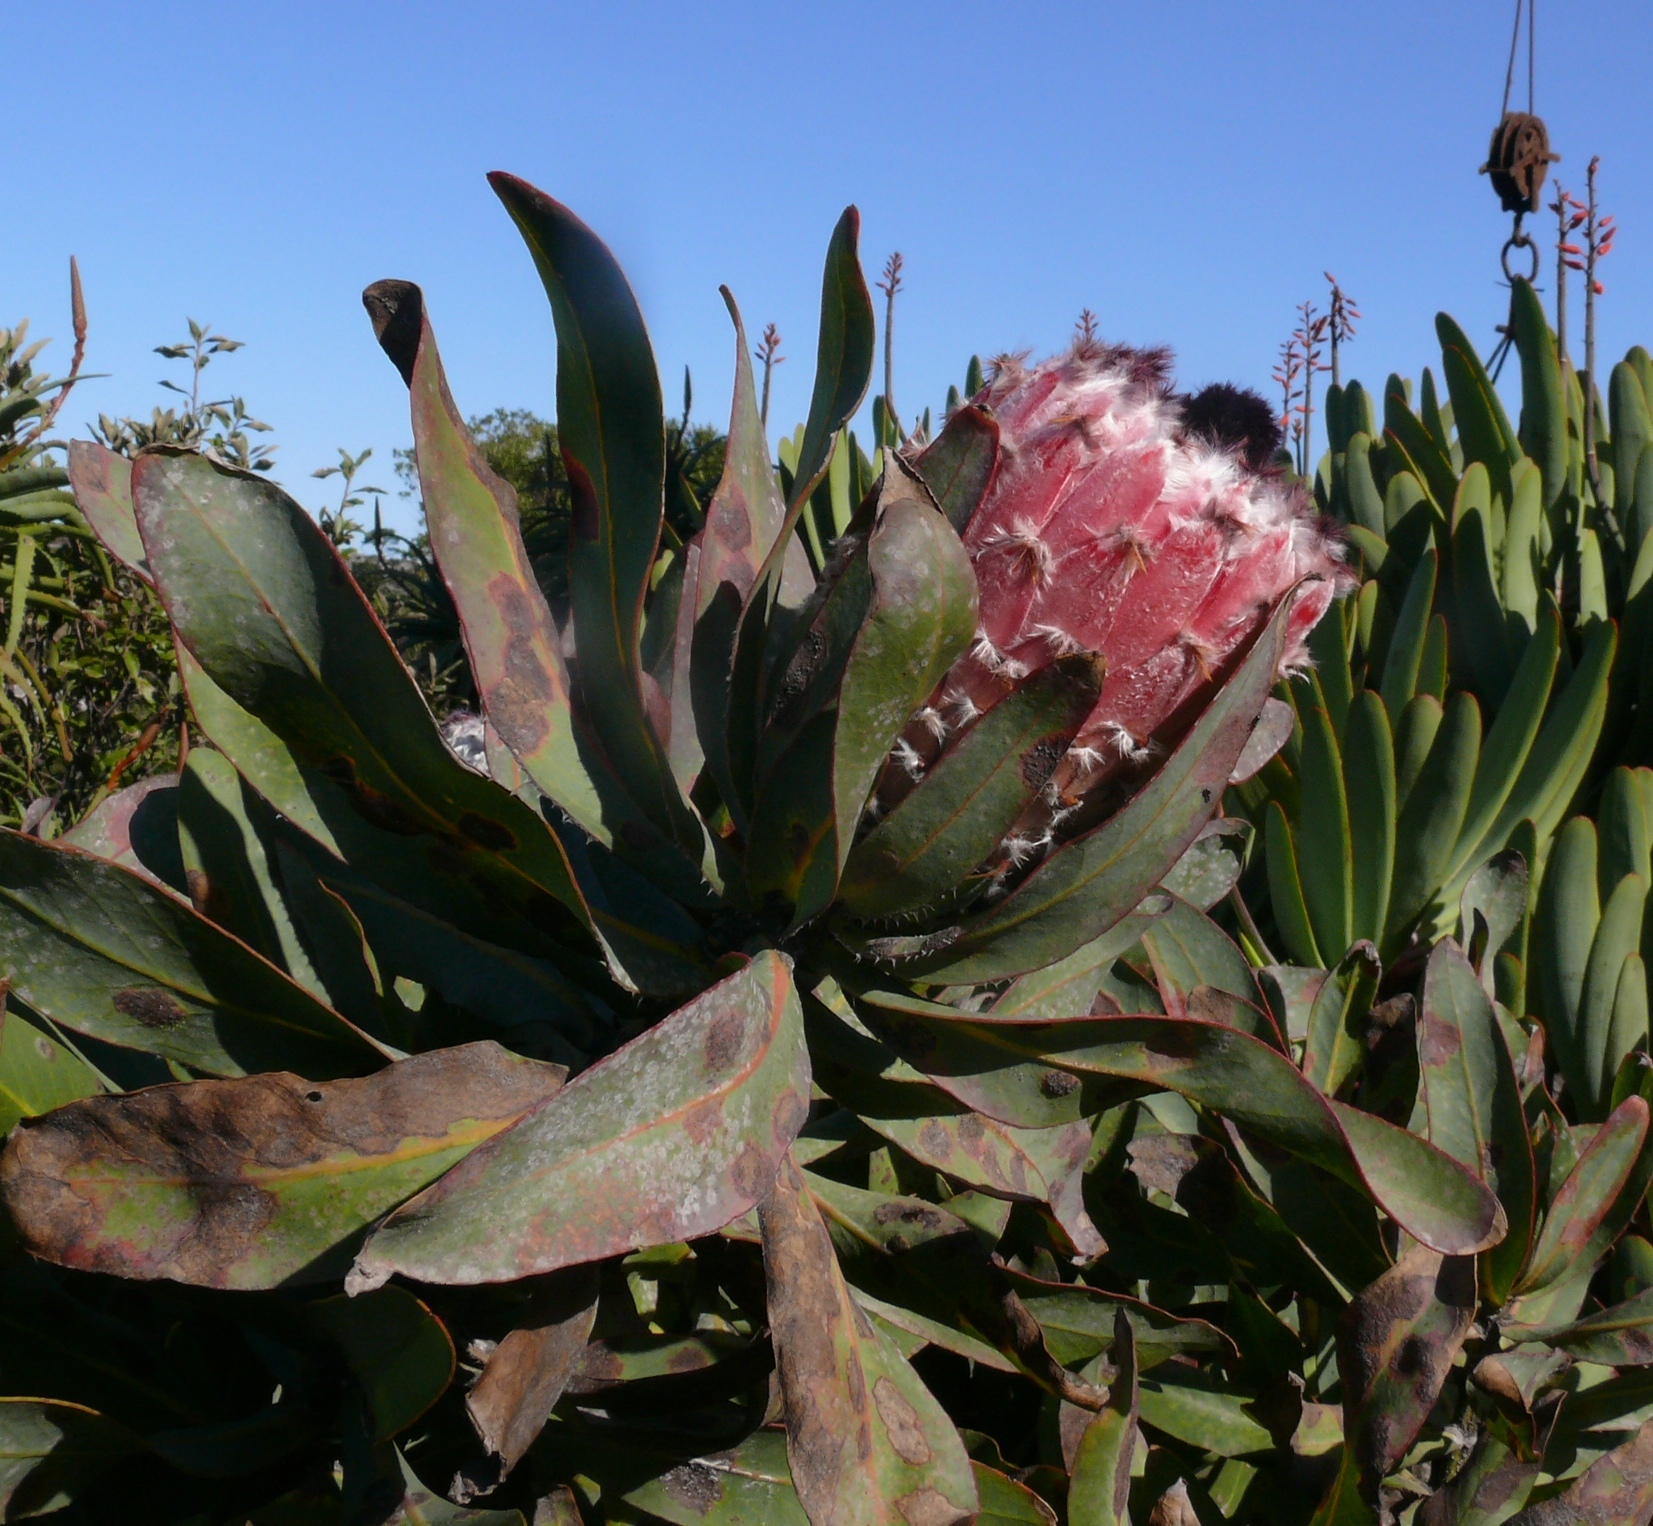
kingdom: Plantae
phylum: Tracheophyta
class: Magnoliopsida
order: Proteales
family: Proteaceae
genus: Protea
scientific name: Protea magnifica
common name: Bearded sugarbush
